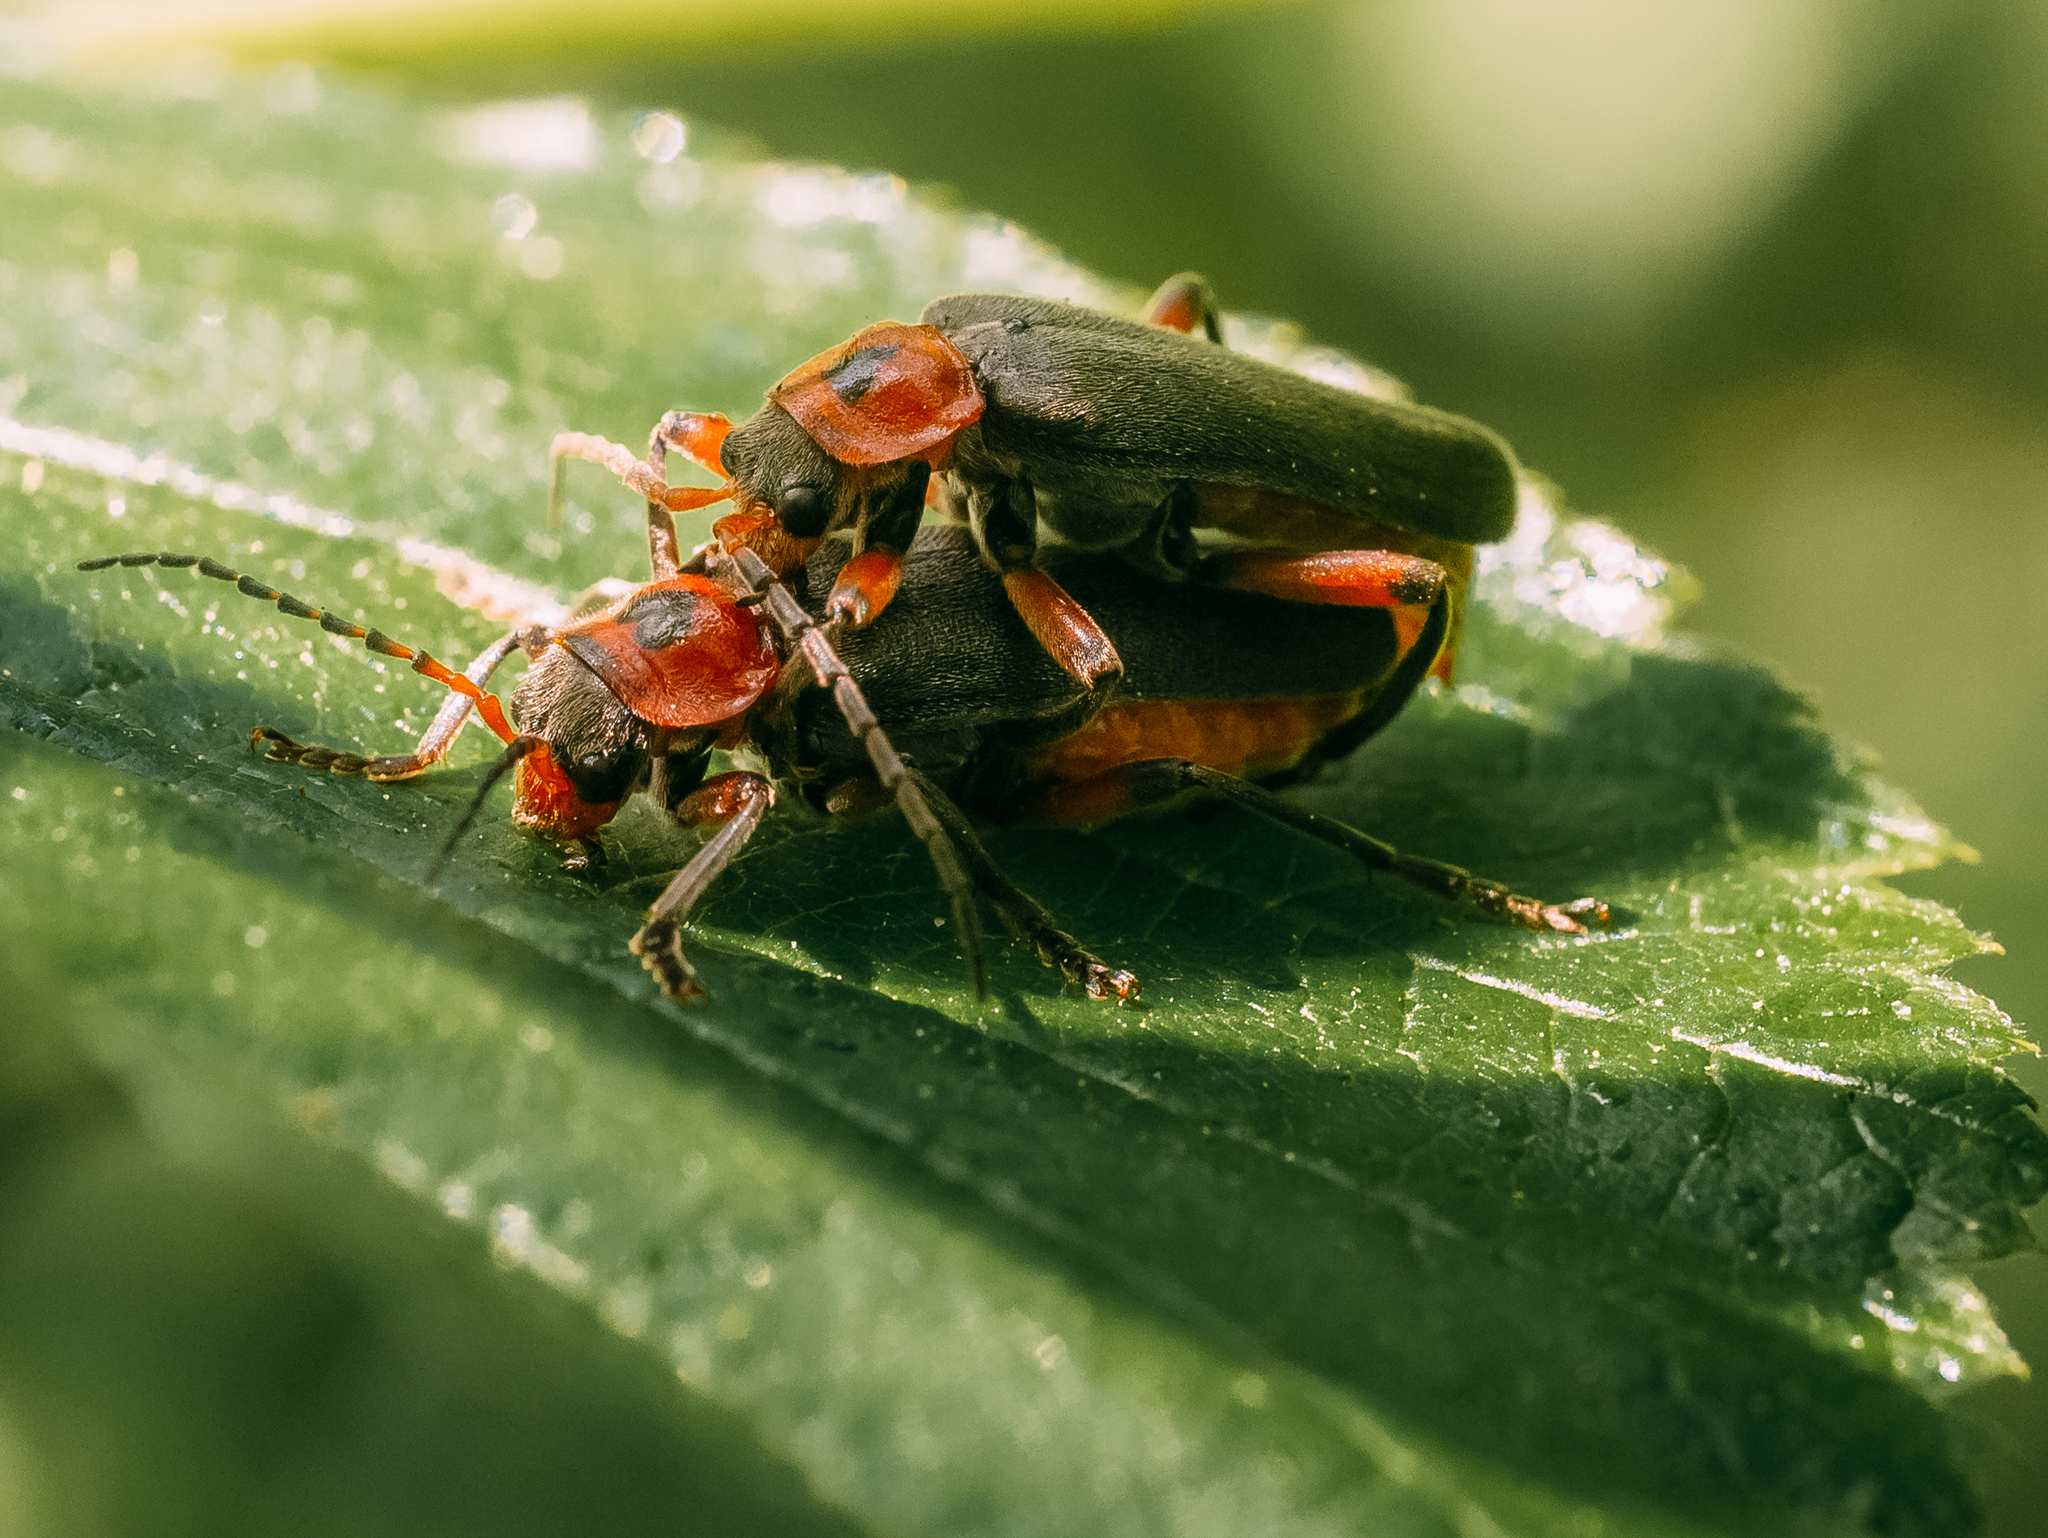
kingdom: Animalia
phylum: Arthropoda
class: Insecta
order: Coleoptera
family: Cantharidae
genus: Cantharis
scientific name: Cantharis rustica
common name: Soldier beetle
